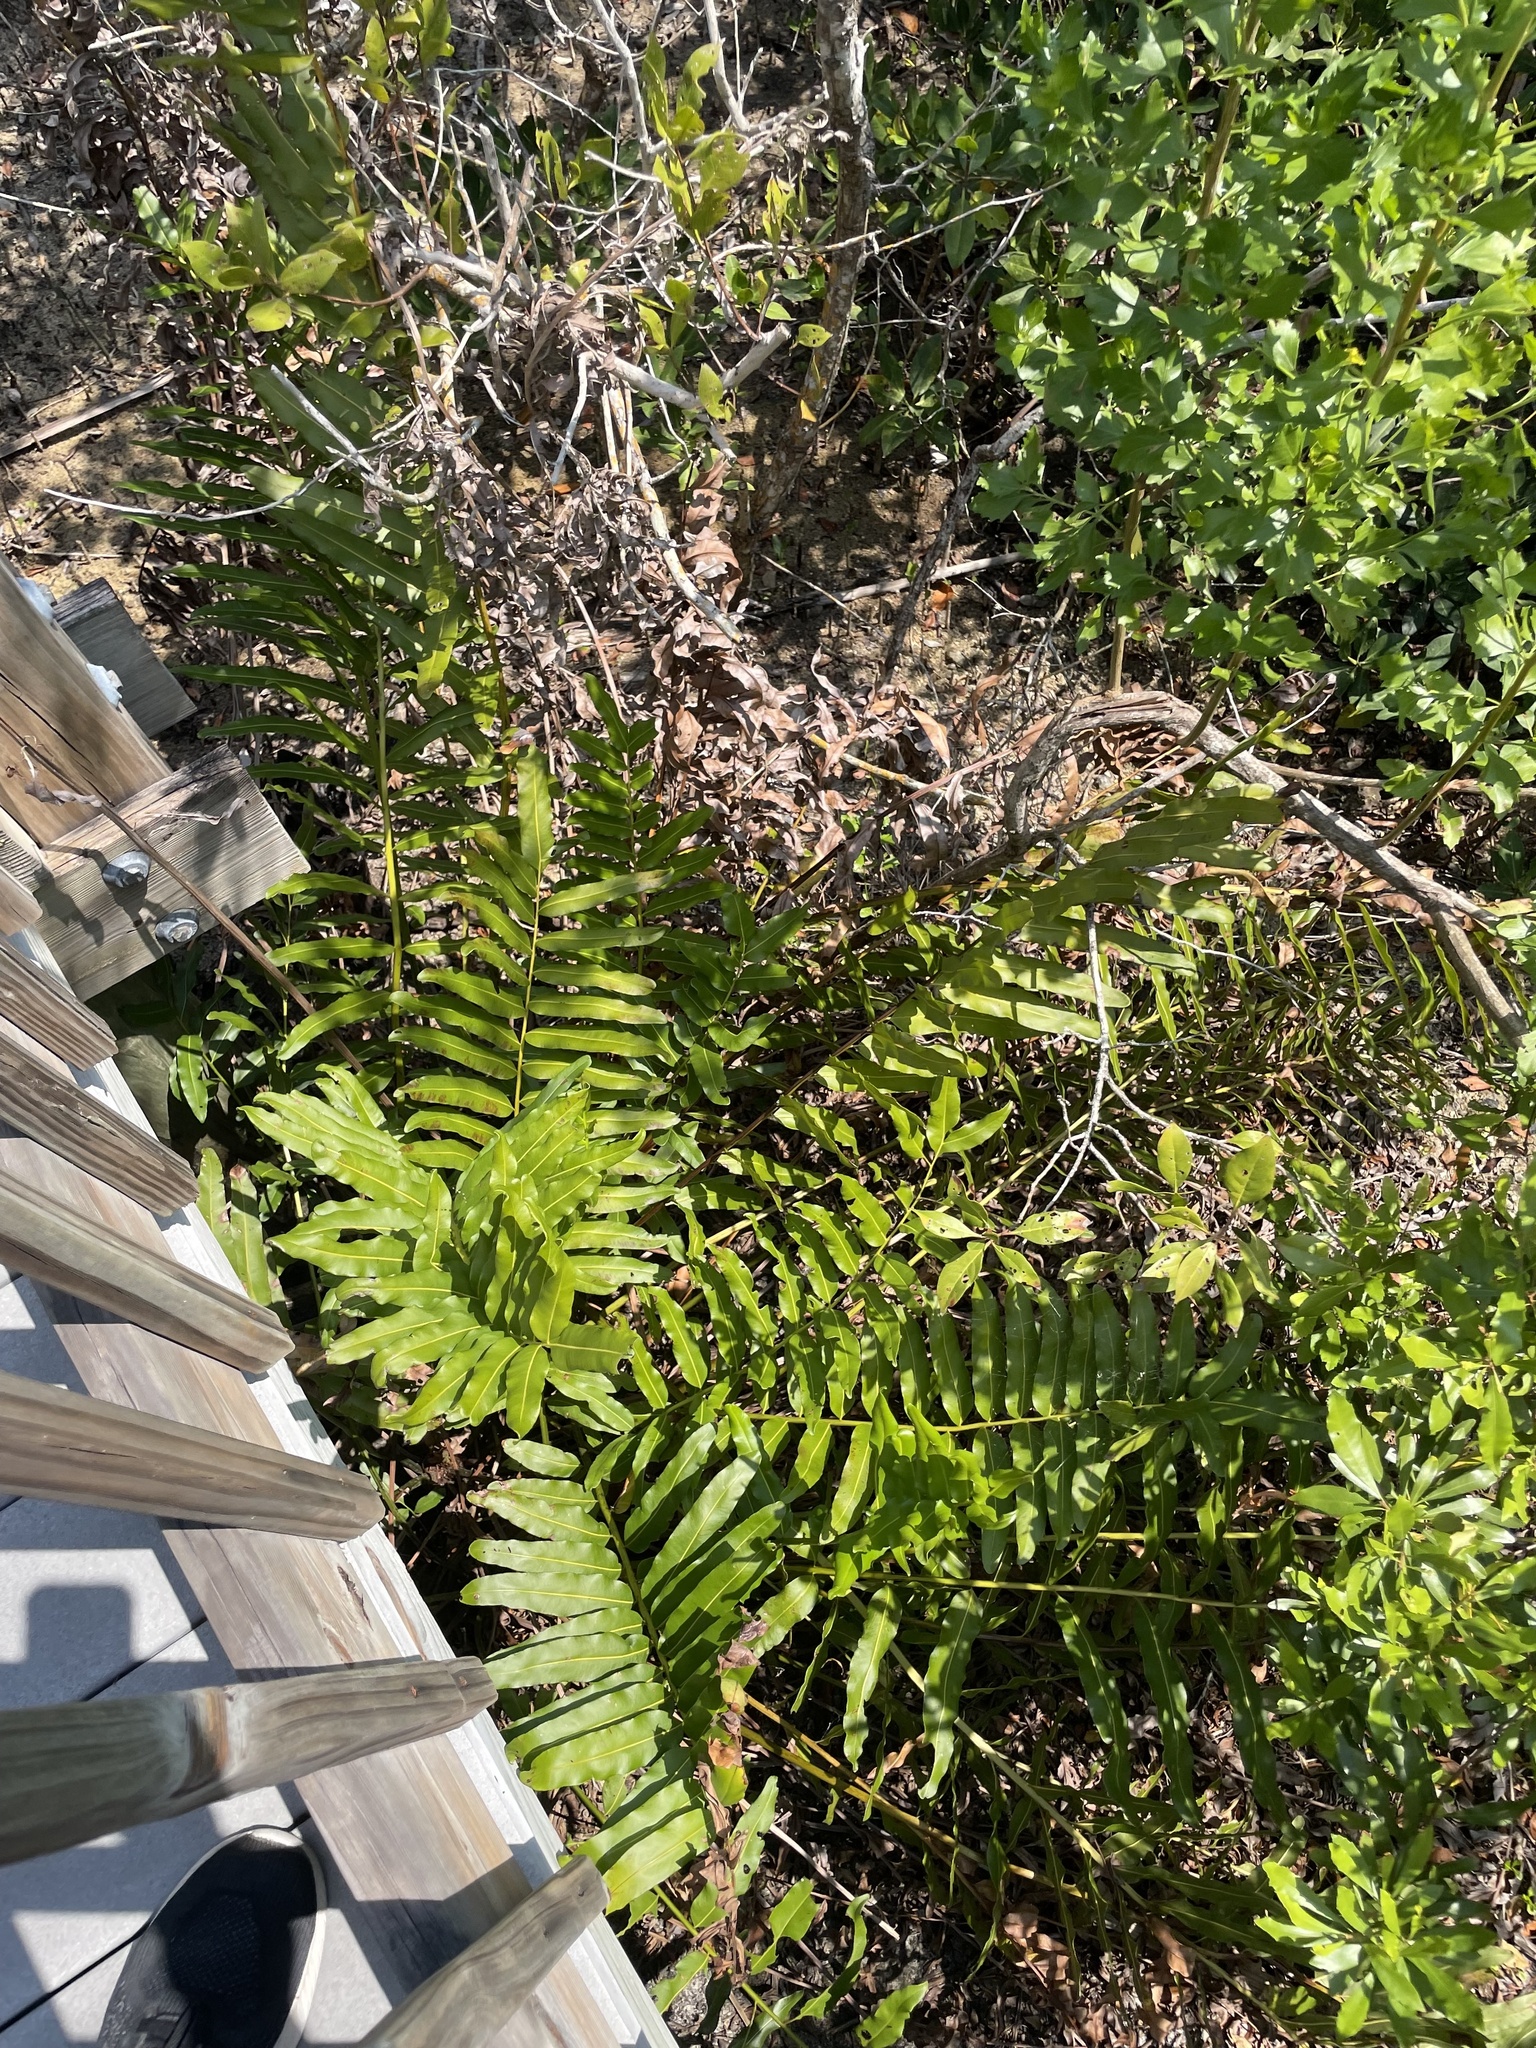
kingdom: Plantae
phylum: Tracheophyta
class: Polypodiopsida
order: Polypodiales
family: Pteridaceae
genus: Acrostichum
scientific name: Acrostichum aureum
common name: Leather fern
